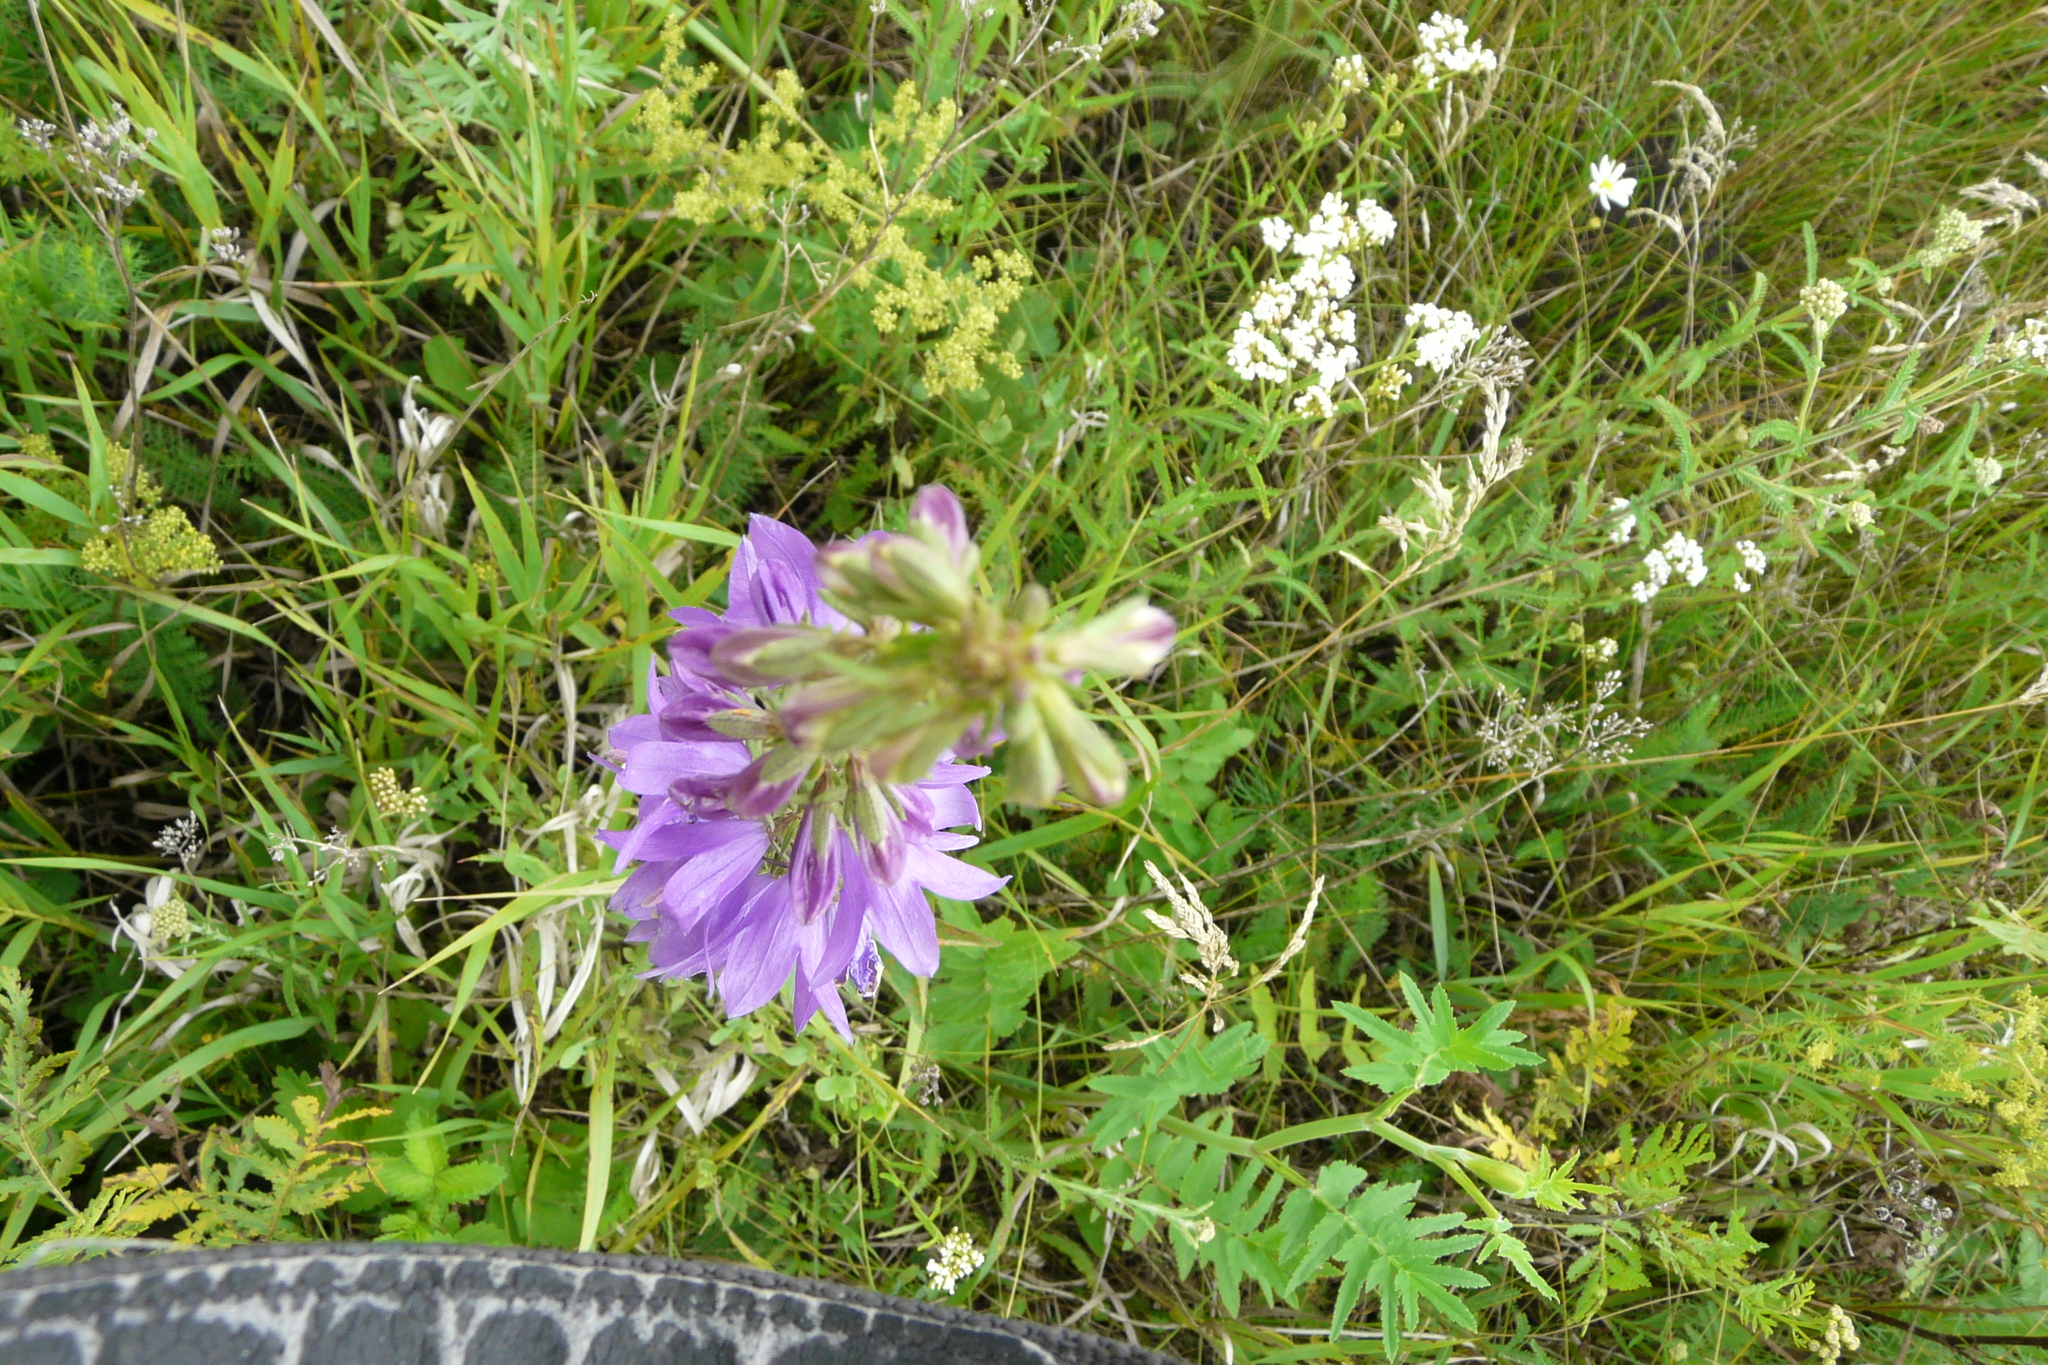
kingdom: Plantae
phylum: Tracheophyta
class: Magnoliopsida
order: Asterales
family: Campanulaceae
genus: Campanula
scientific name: Campanula rapunculoides
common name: Creeping bellflower
